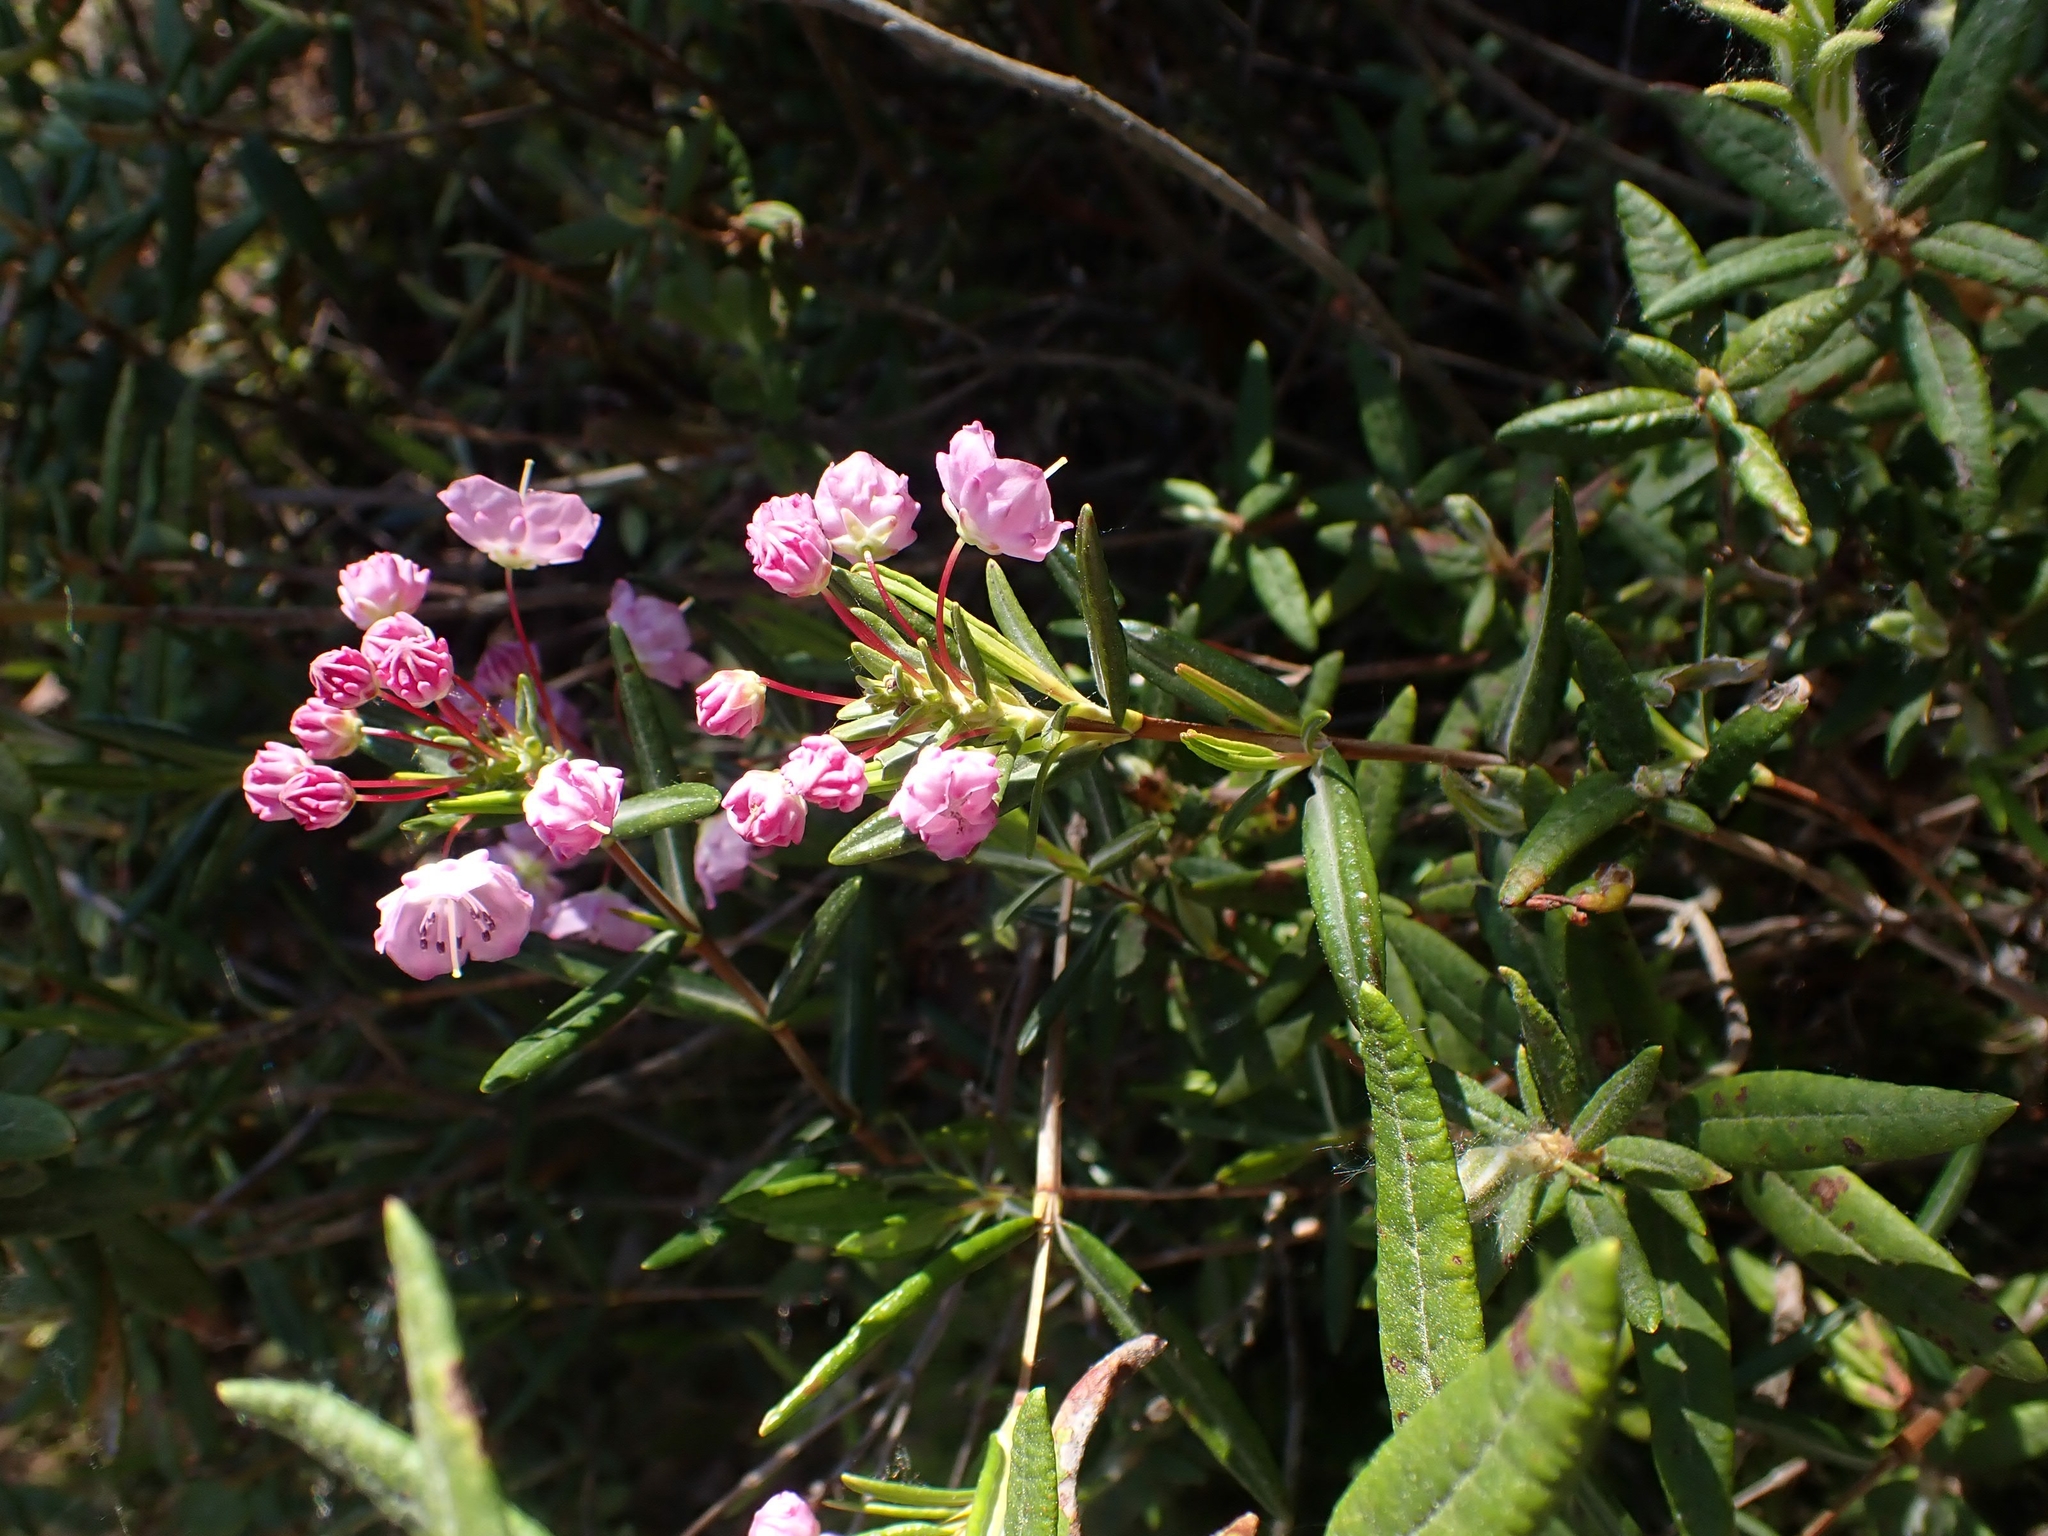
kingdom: Plantae
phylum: Tracheophyta
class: Magnoliopsida
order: Ericales
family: Ericaceae
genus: Kalmia
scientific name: Kalmia polifolia
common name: Bog-laurel
